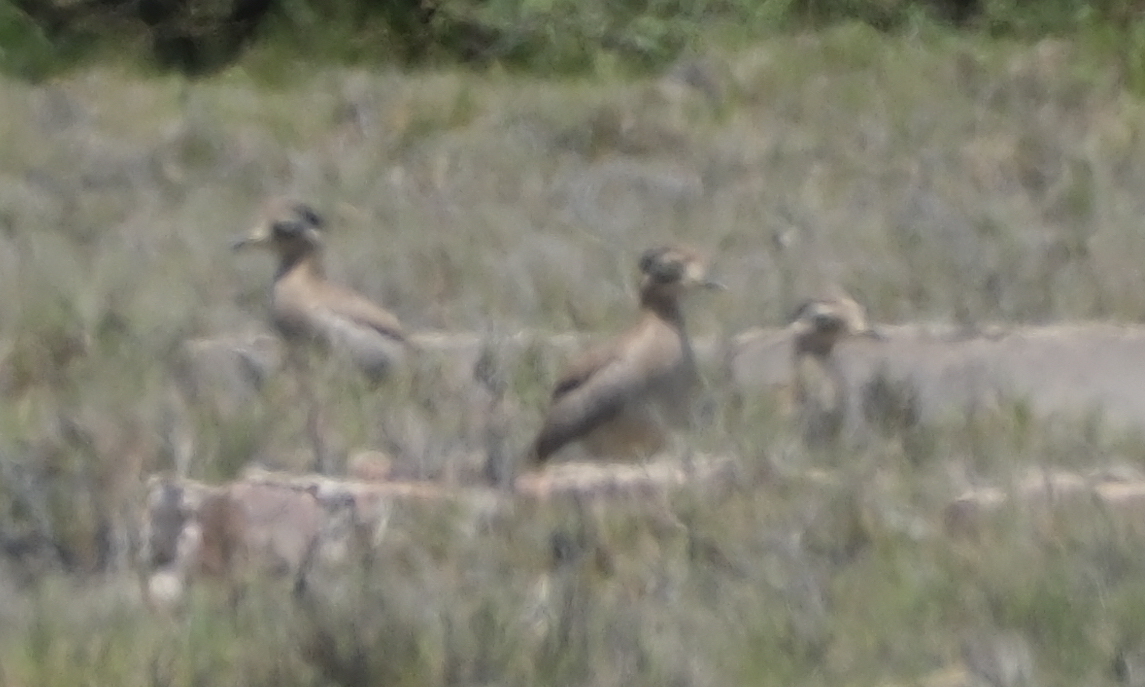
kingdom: Animalia
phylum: Chordata
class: Aves
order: Charadriiformes
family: Burhinidae
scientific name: Burhinidae
